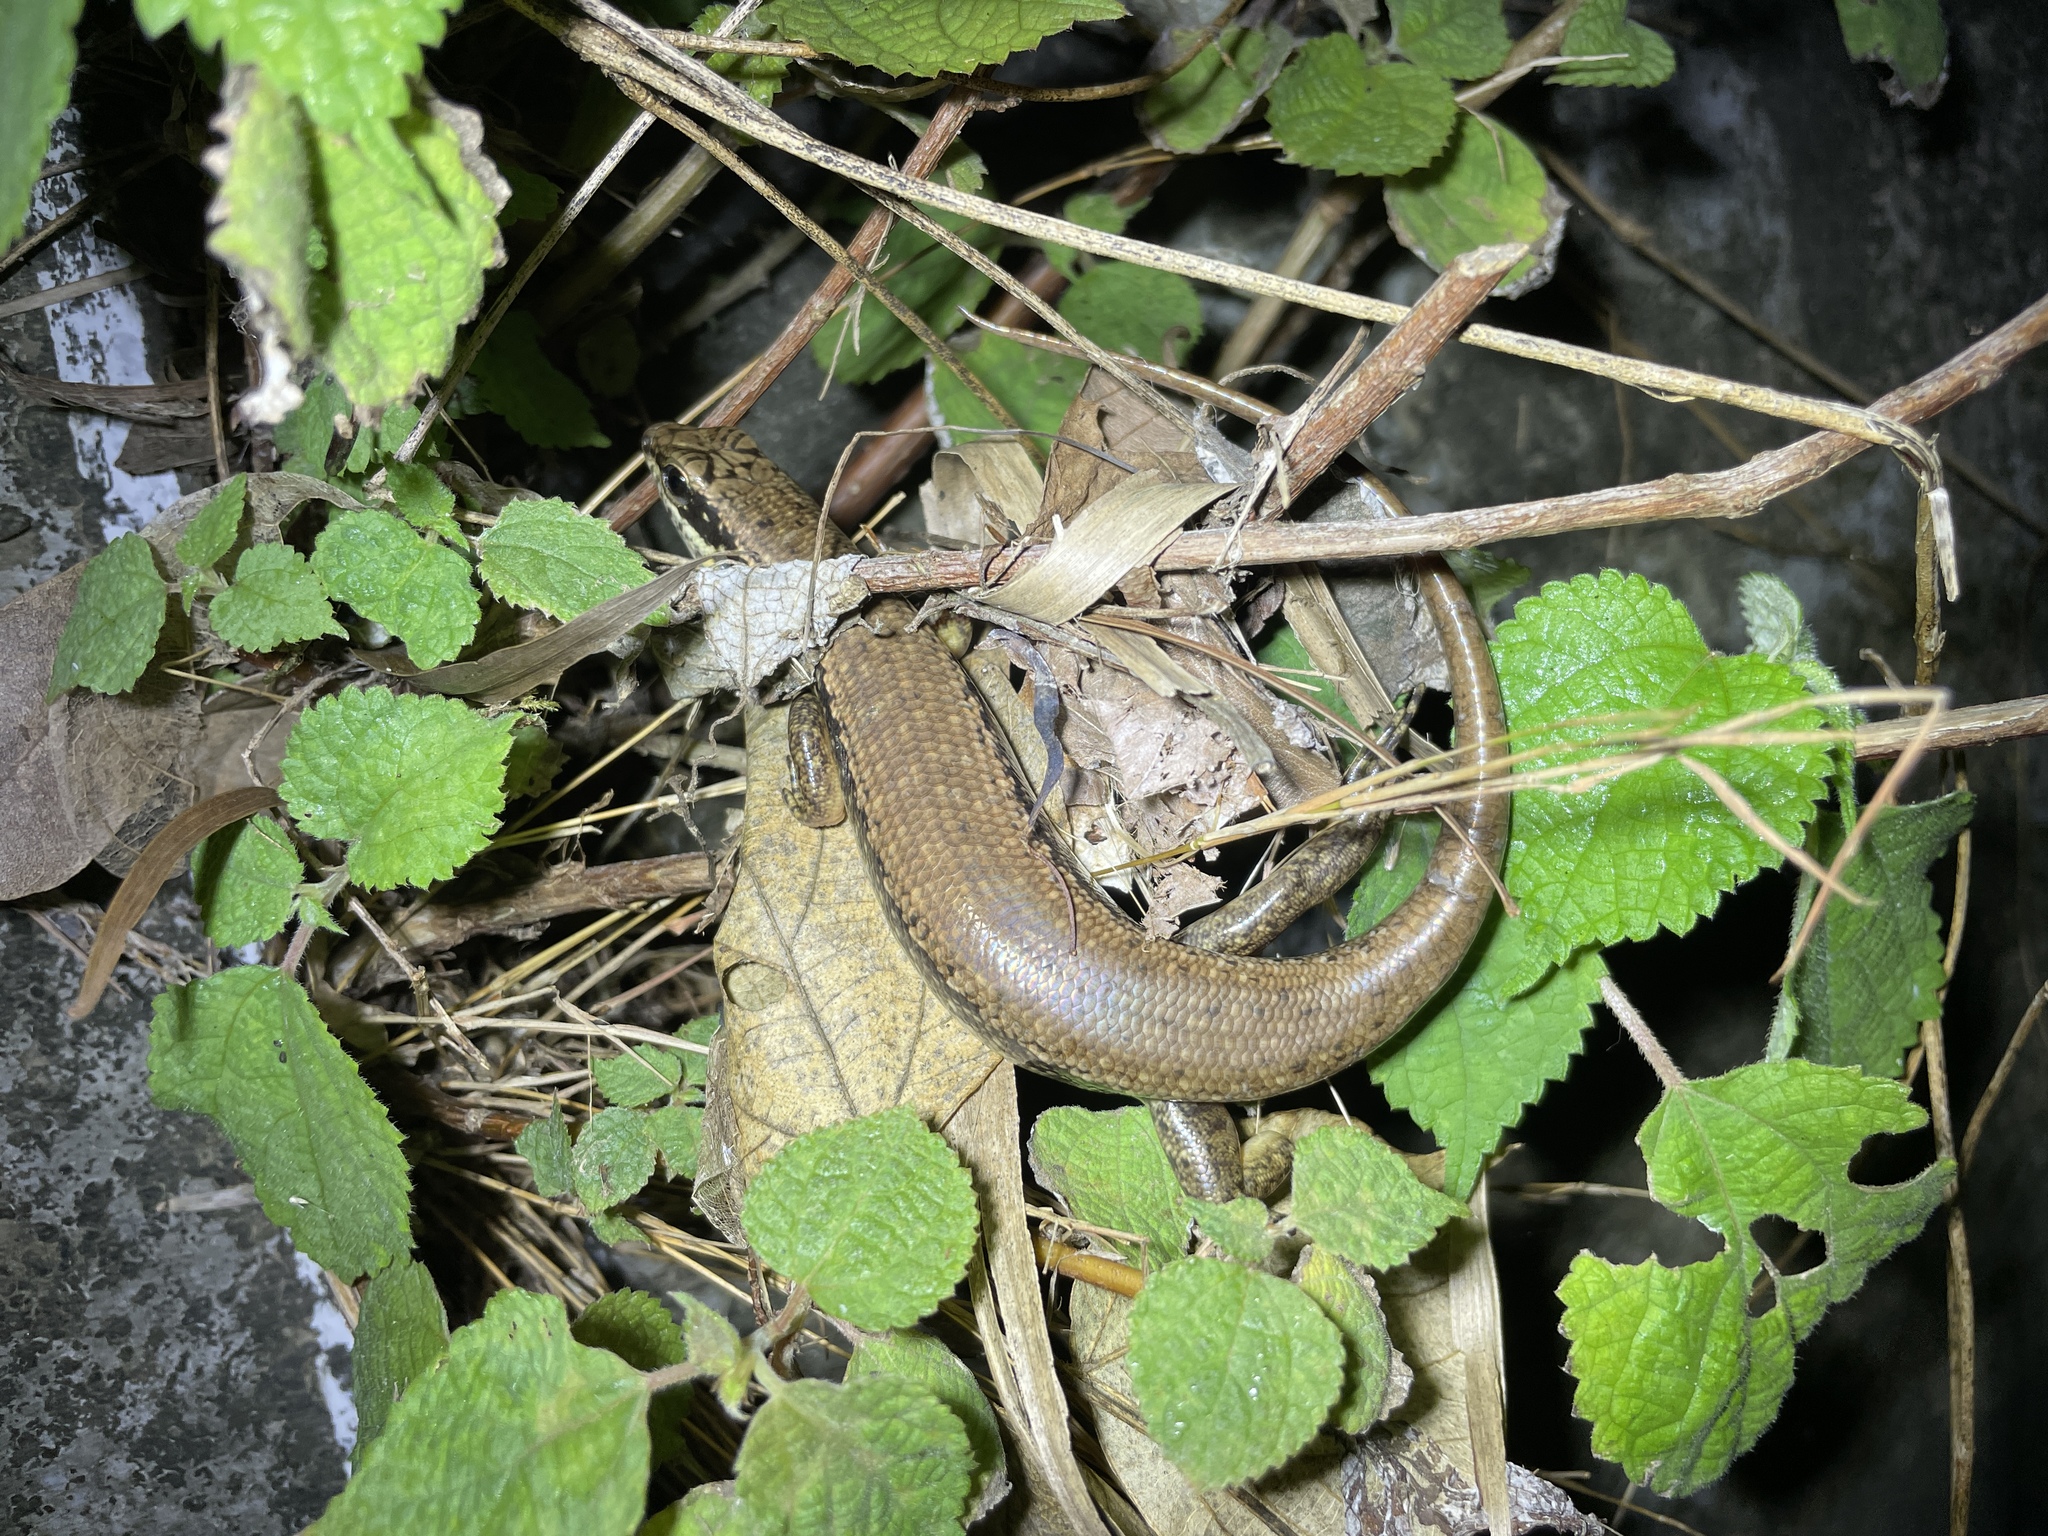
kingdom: Animalia
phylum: Chordata
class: Squamata
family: Scincidae
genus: Sphenomorphus
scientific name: Sphenomorphus incognitus
